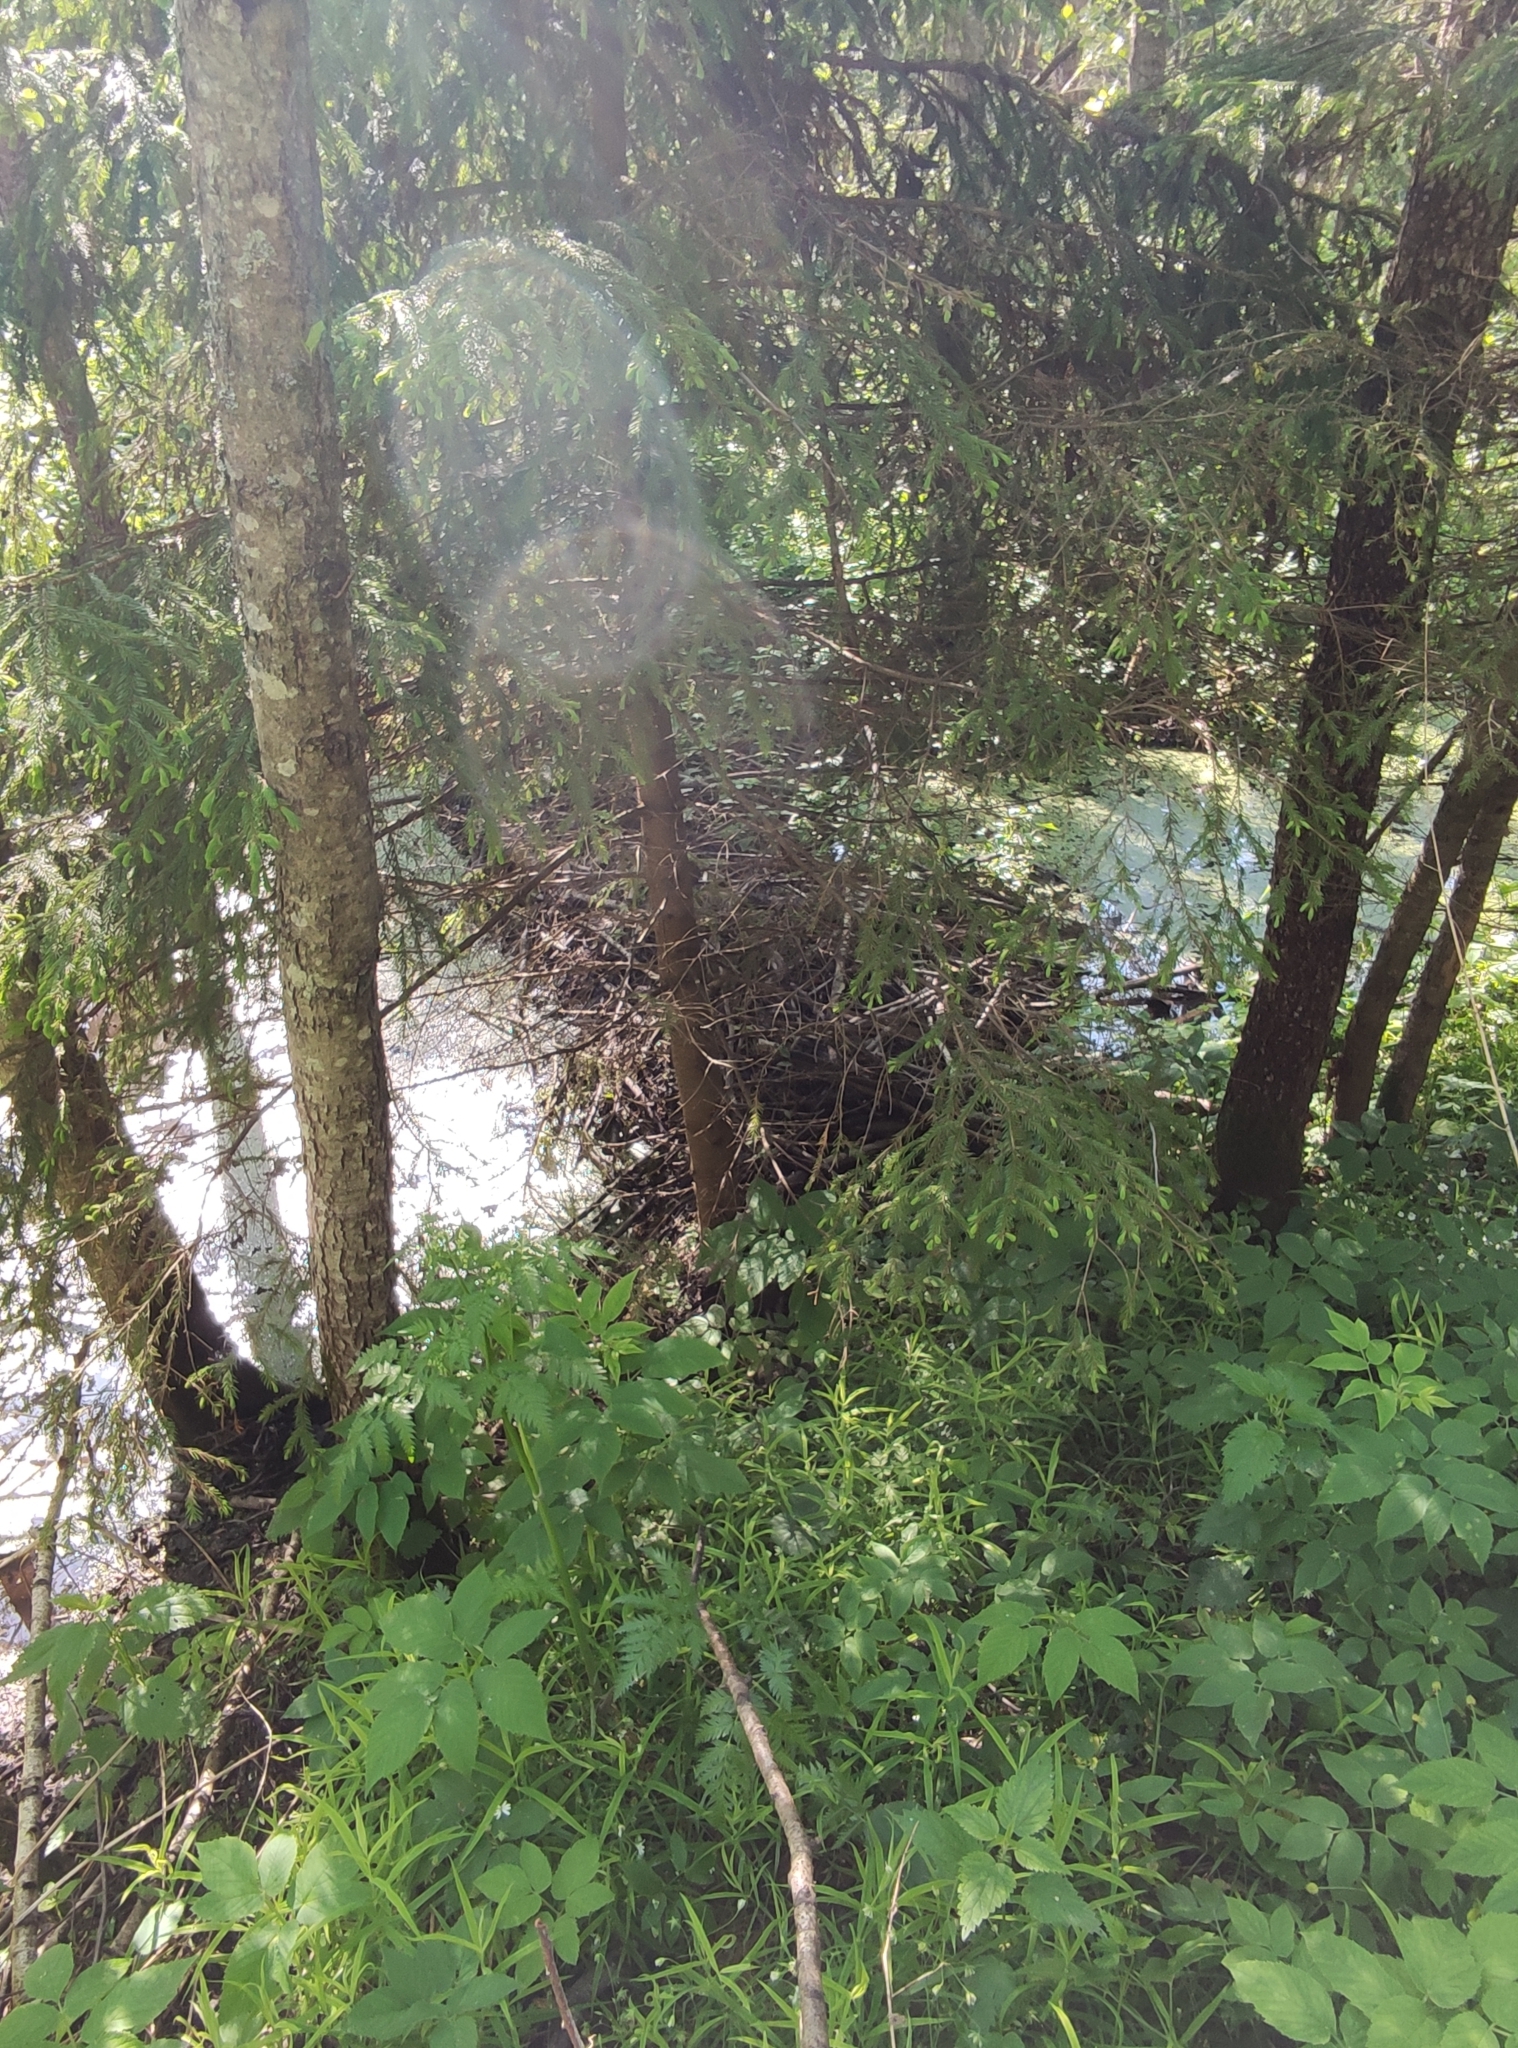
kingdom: Animalia
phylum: Chordata
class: Mammalia
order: Rodentia
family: Castoridae
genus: Castor
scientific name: Castor fiber
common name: Eurasian beaver
